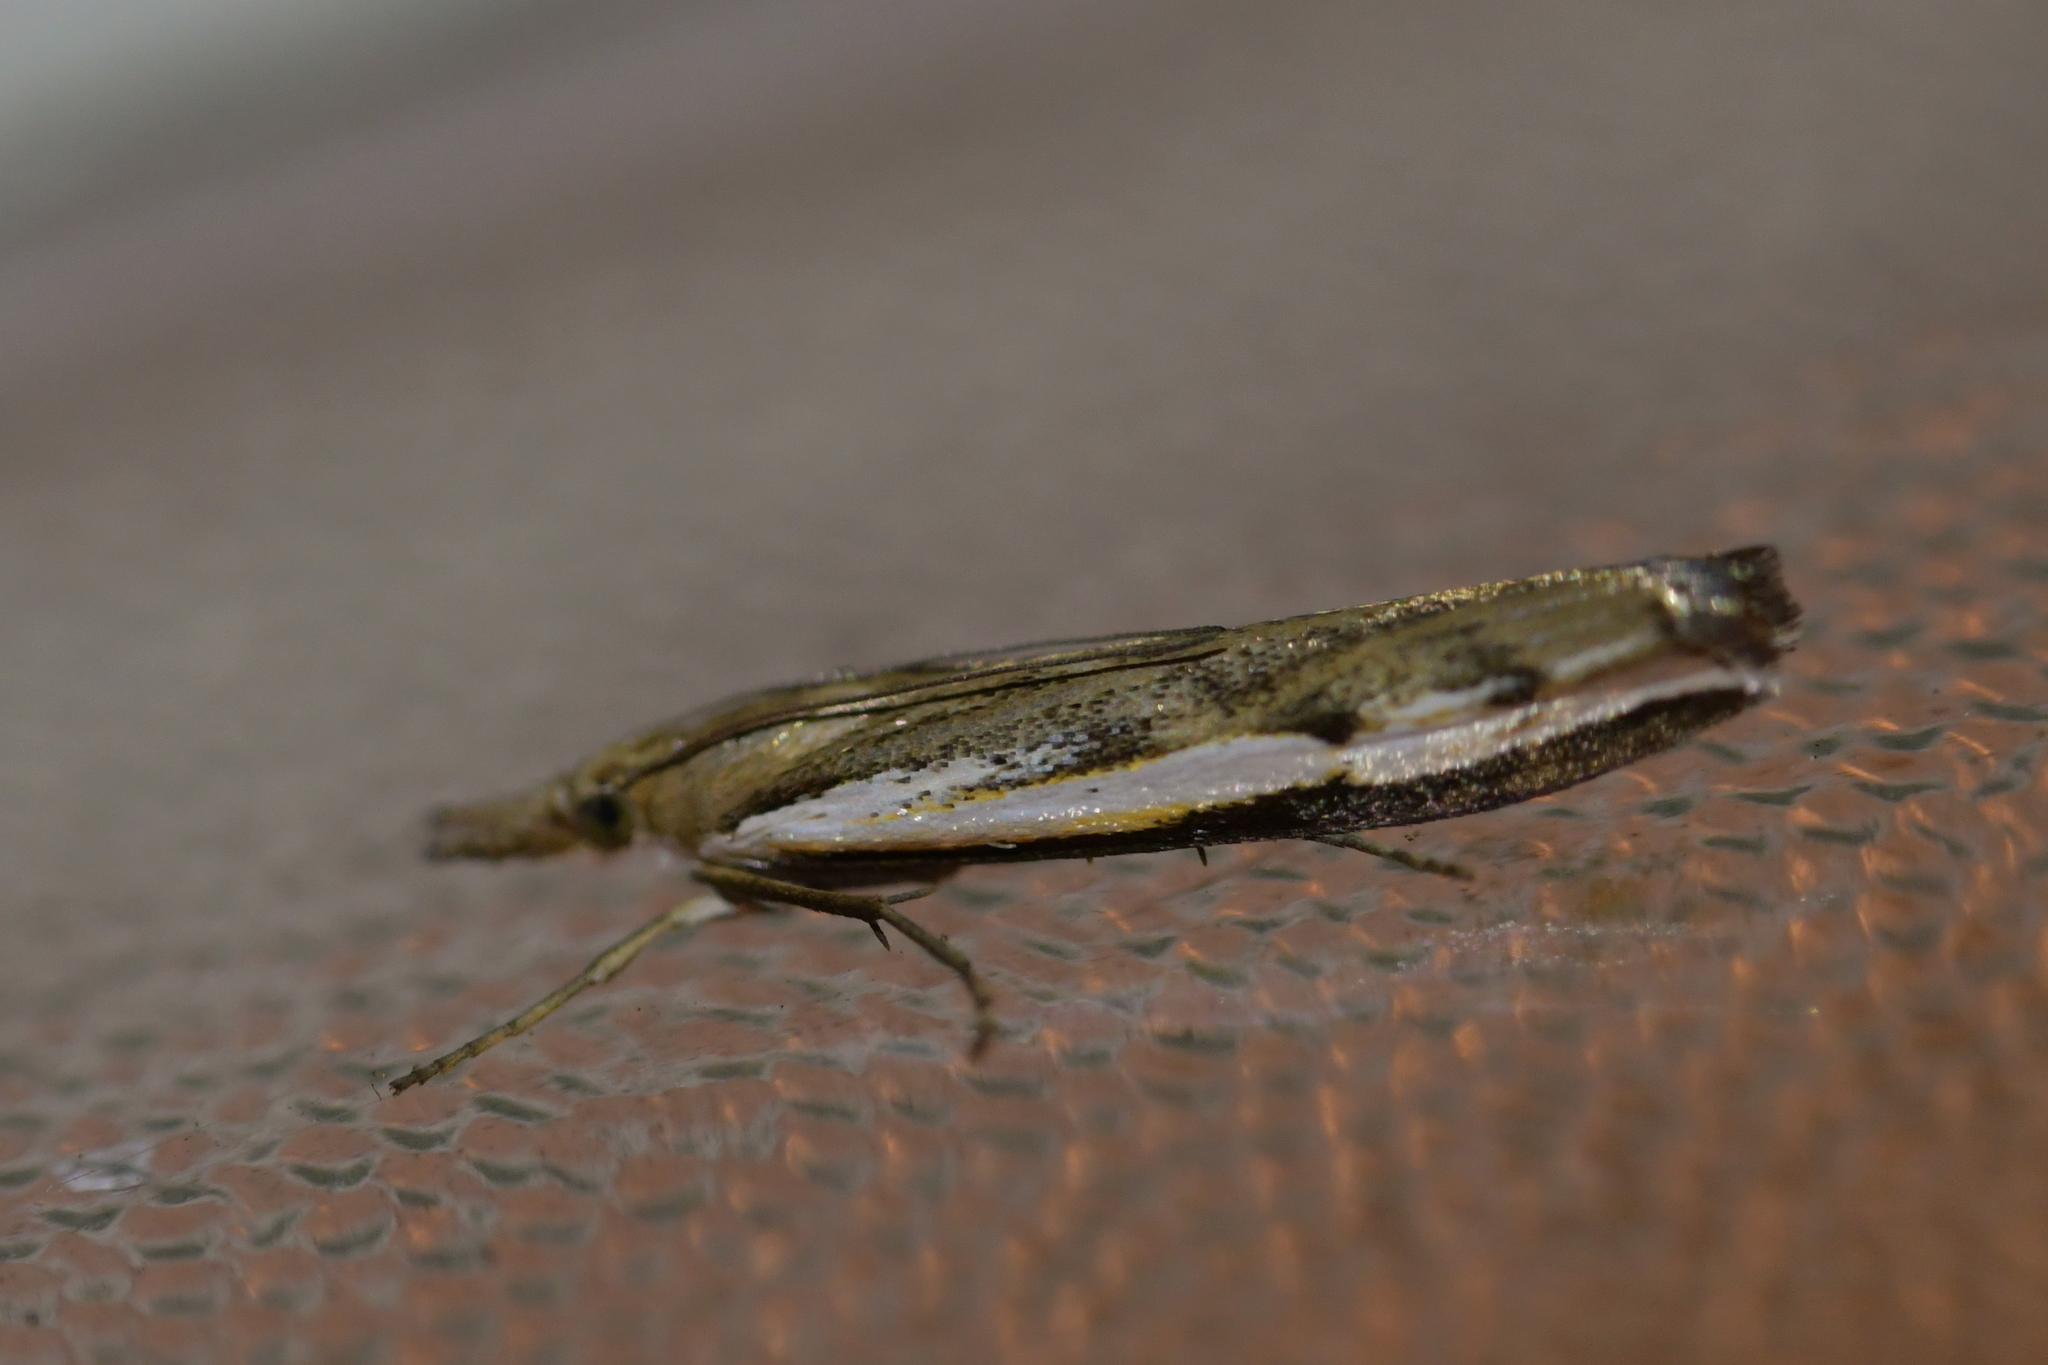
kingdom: Animalia
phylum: Arthropoda
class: Insecta
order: Lepidoptera
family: Crambidae
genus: Orocrambus
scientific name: Orocrambus flexuosellus
